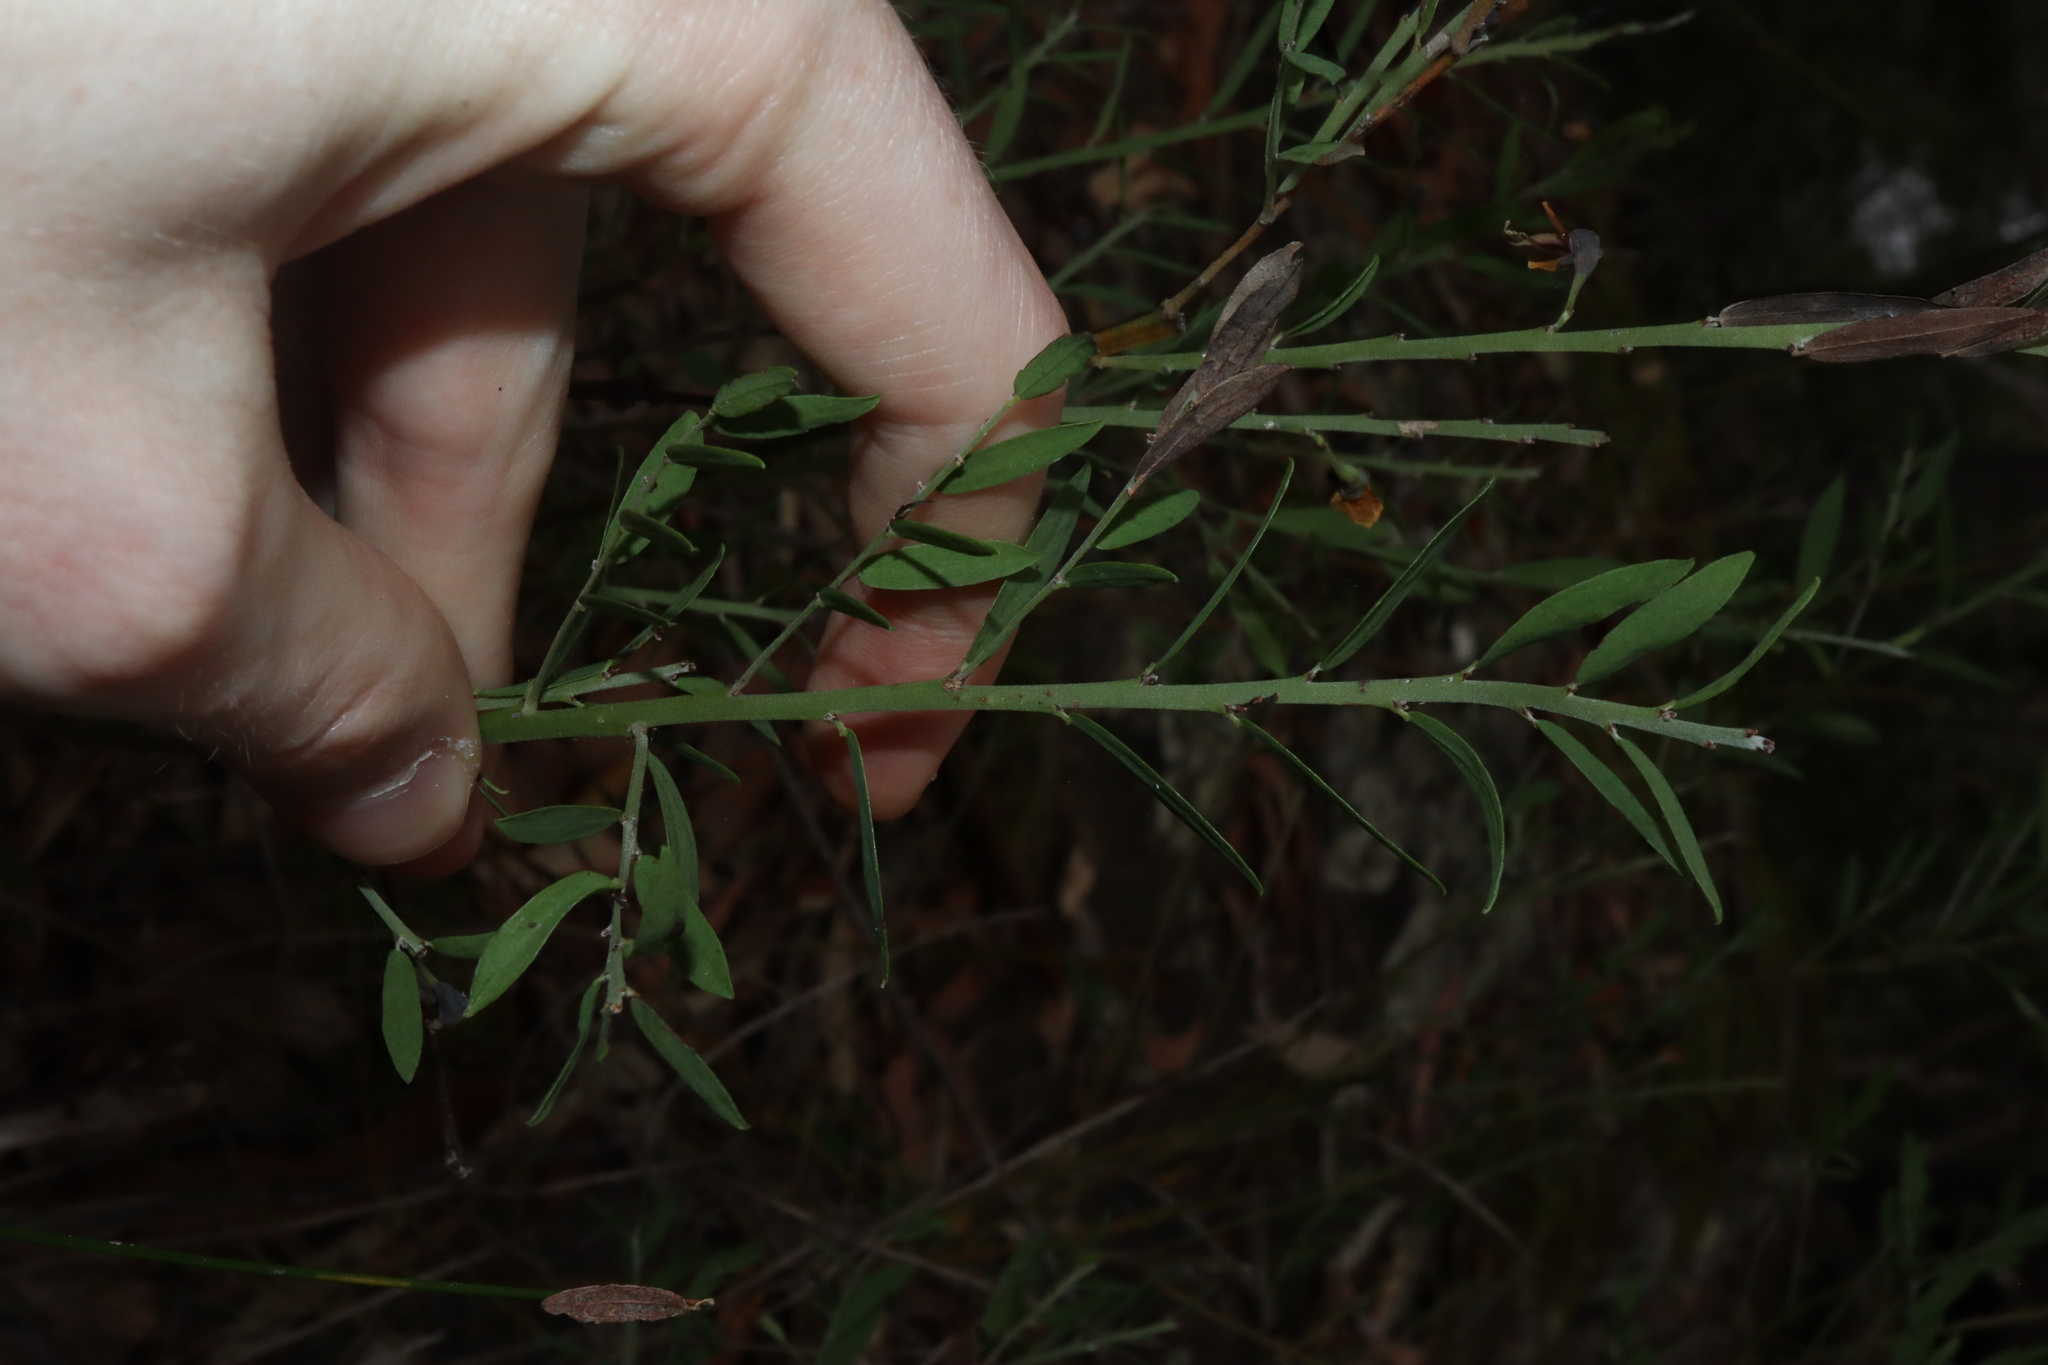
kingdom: Plantae
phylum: Tracheophyta
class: Magnoliopsida
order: Fabales
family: Fabaceae
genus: Bossiaea
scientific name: Bossiaea heterophylla
